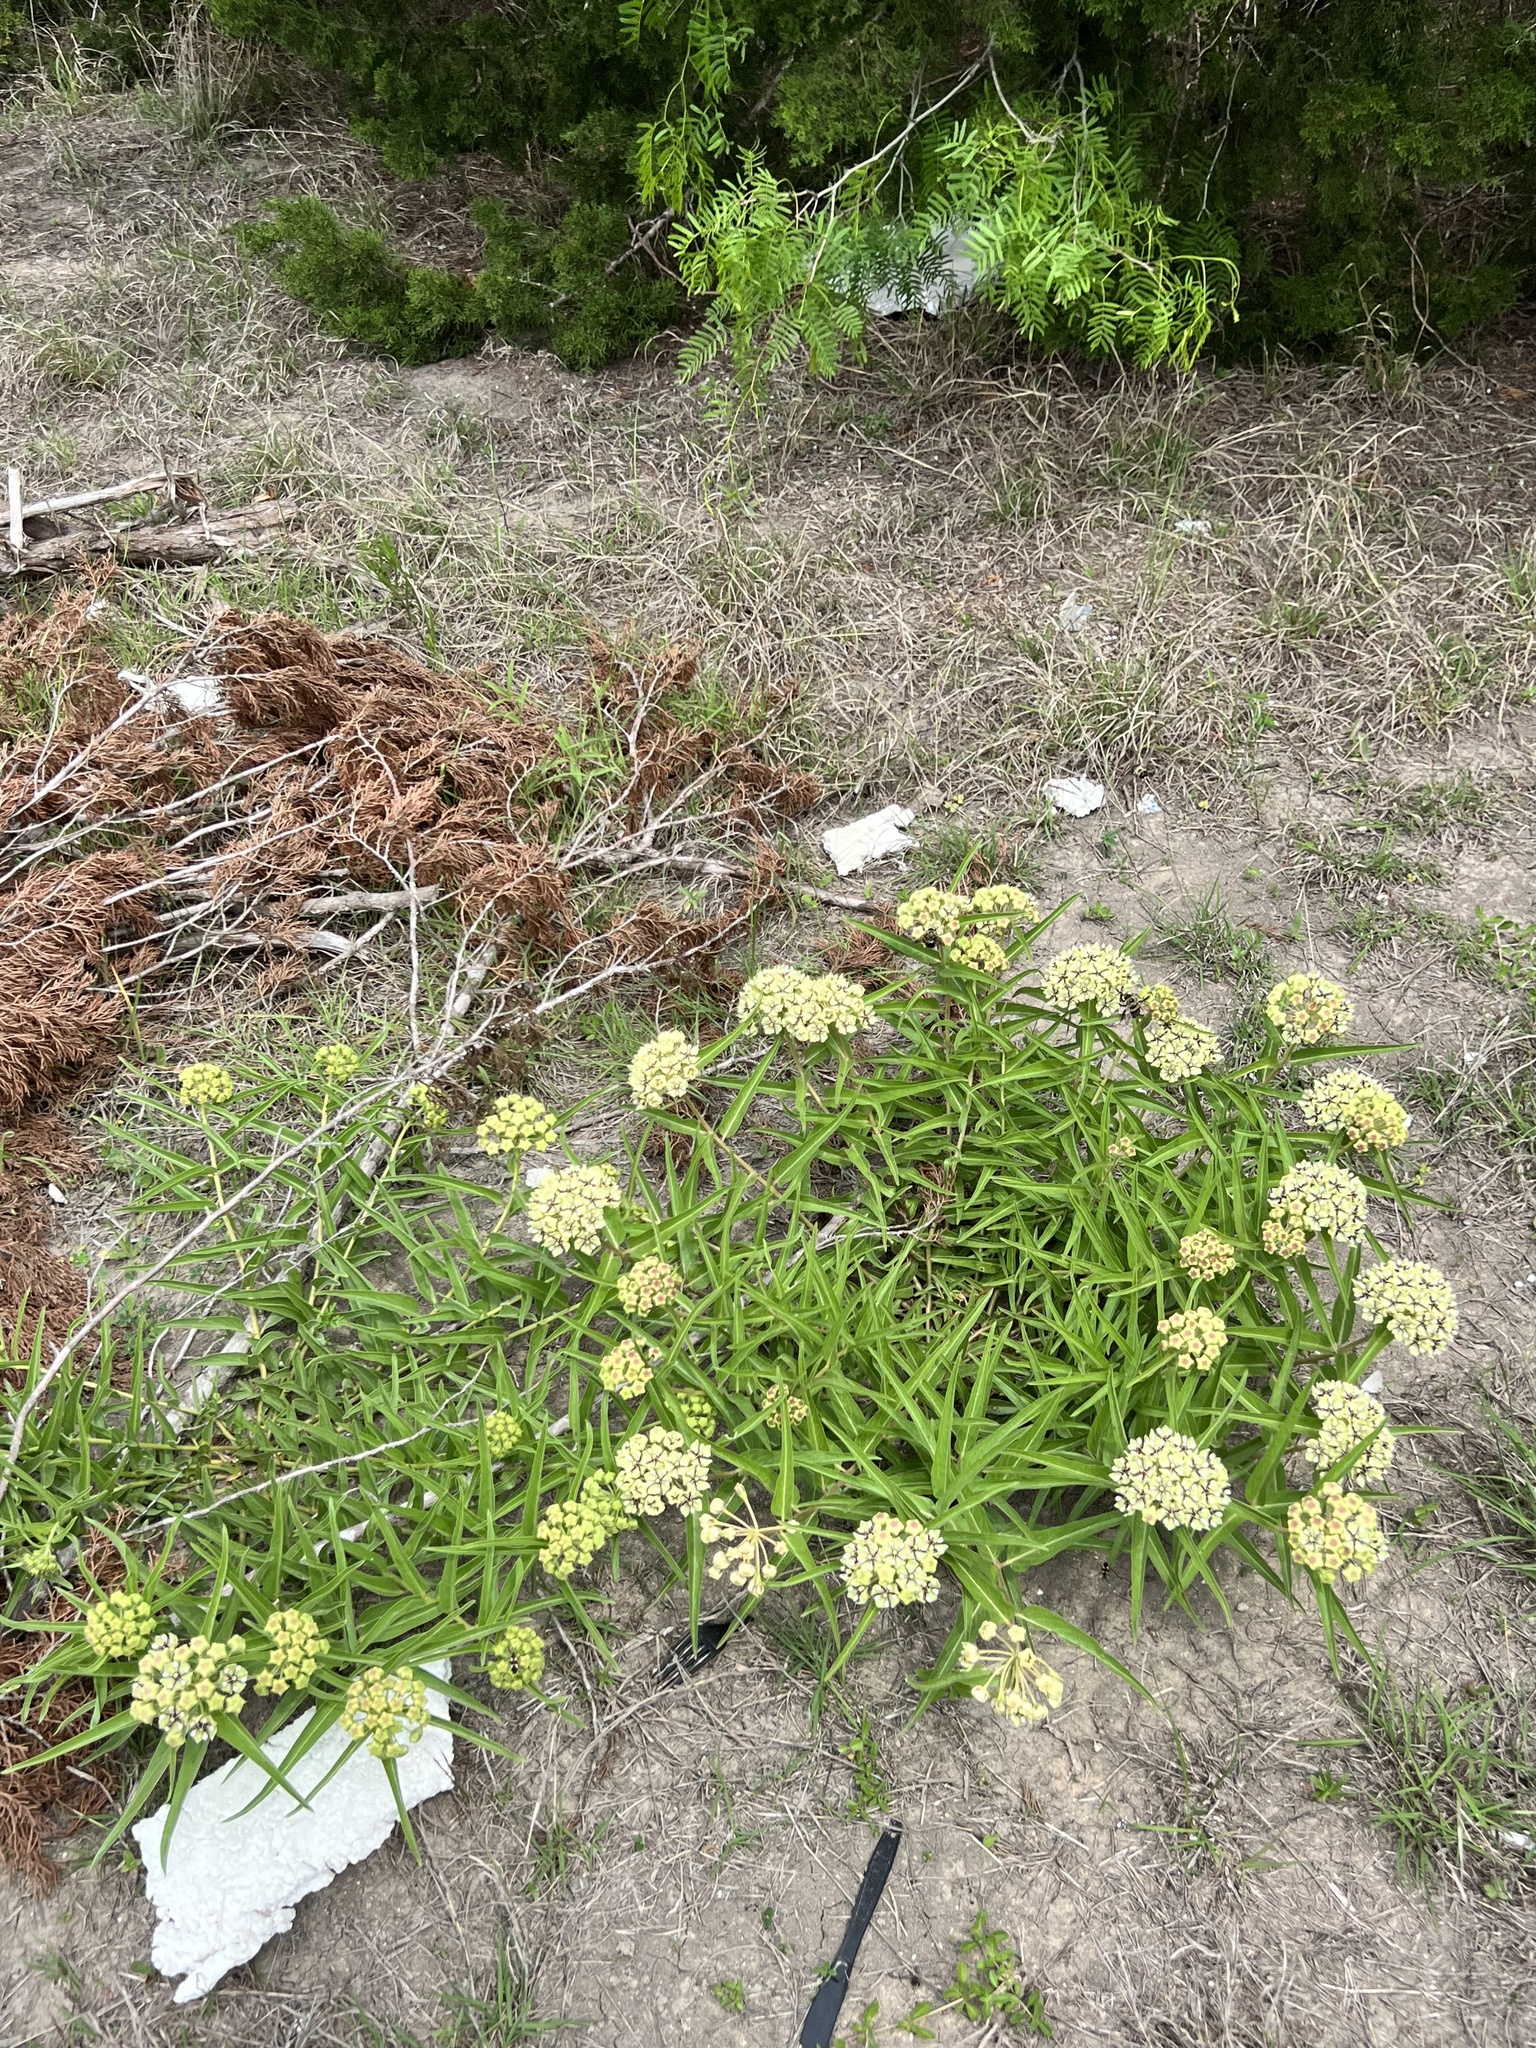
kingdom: Plantae
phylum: Tracheophyta
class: Magnoliopsida
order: Gentianales
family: Apocynaceae
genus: Asclepias
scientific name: Asclepias asperula
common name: Antelope horns
